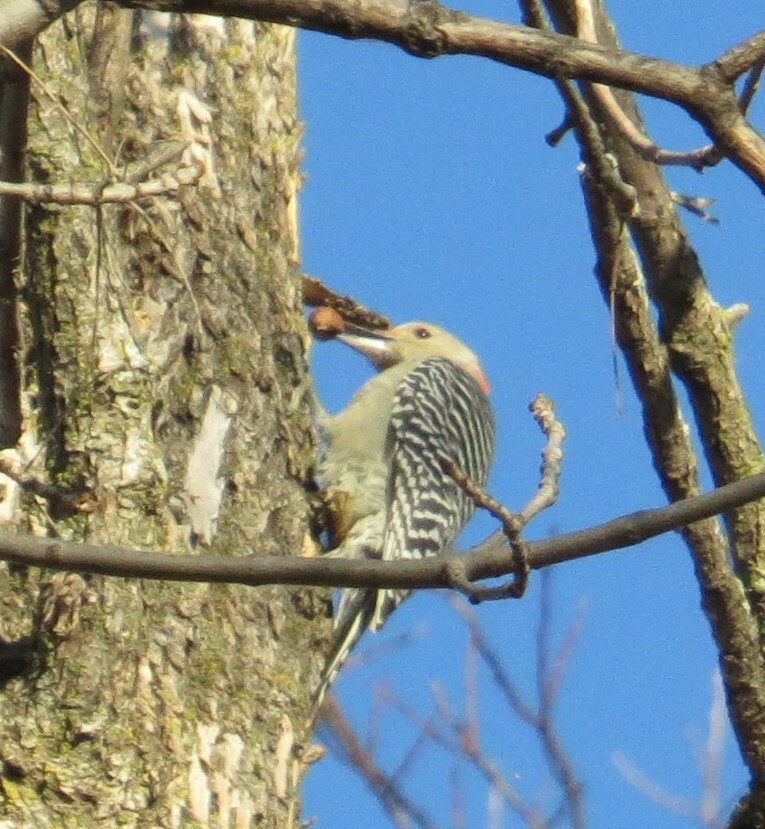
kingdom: Animalia
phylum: Chordata
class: Aves
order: Piciformes
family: Picidae
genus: Melanerpes
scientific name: Melanerpes carolinus
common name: Red-bellied woodpecker
